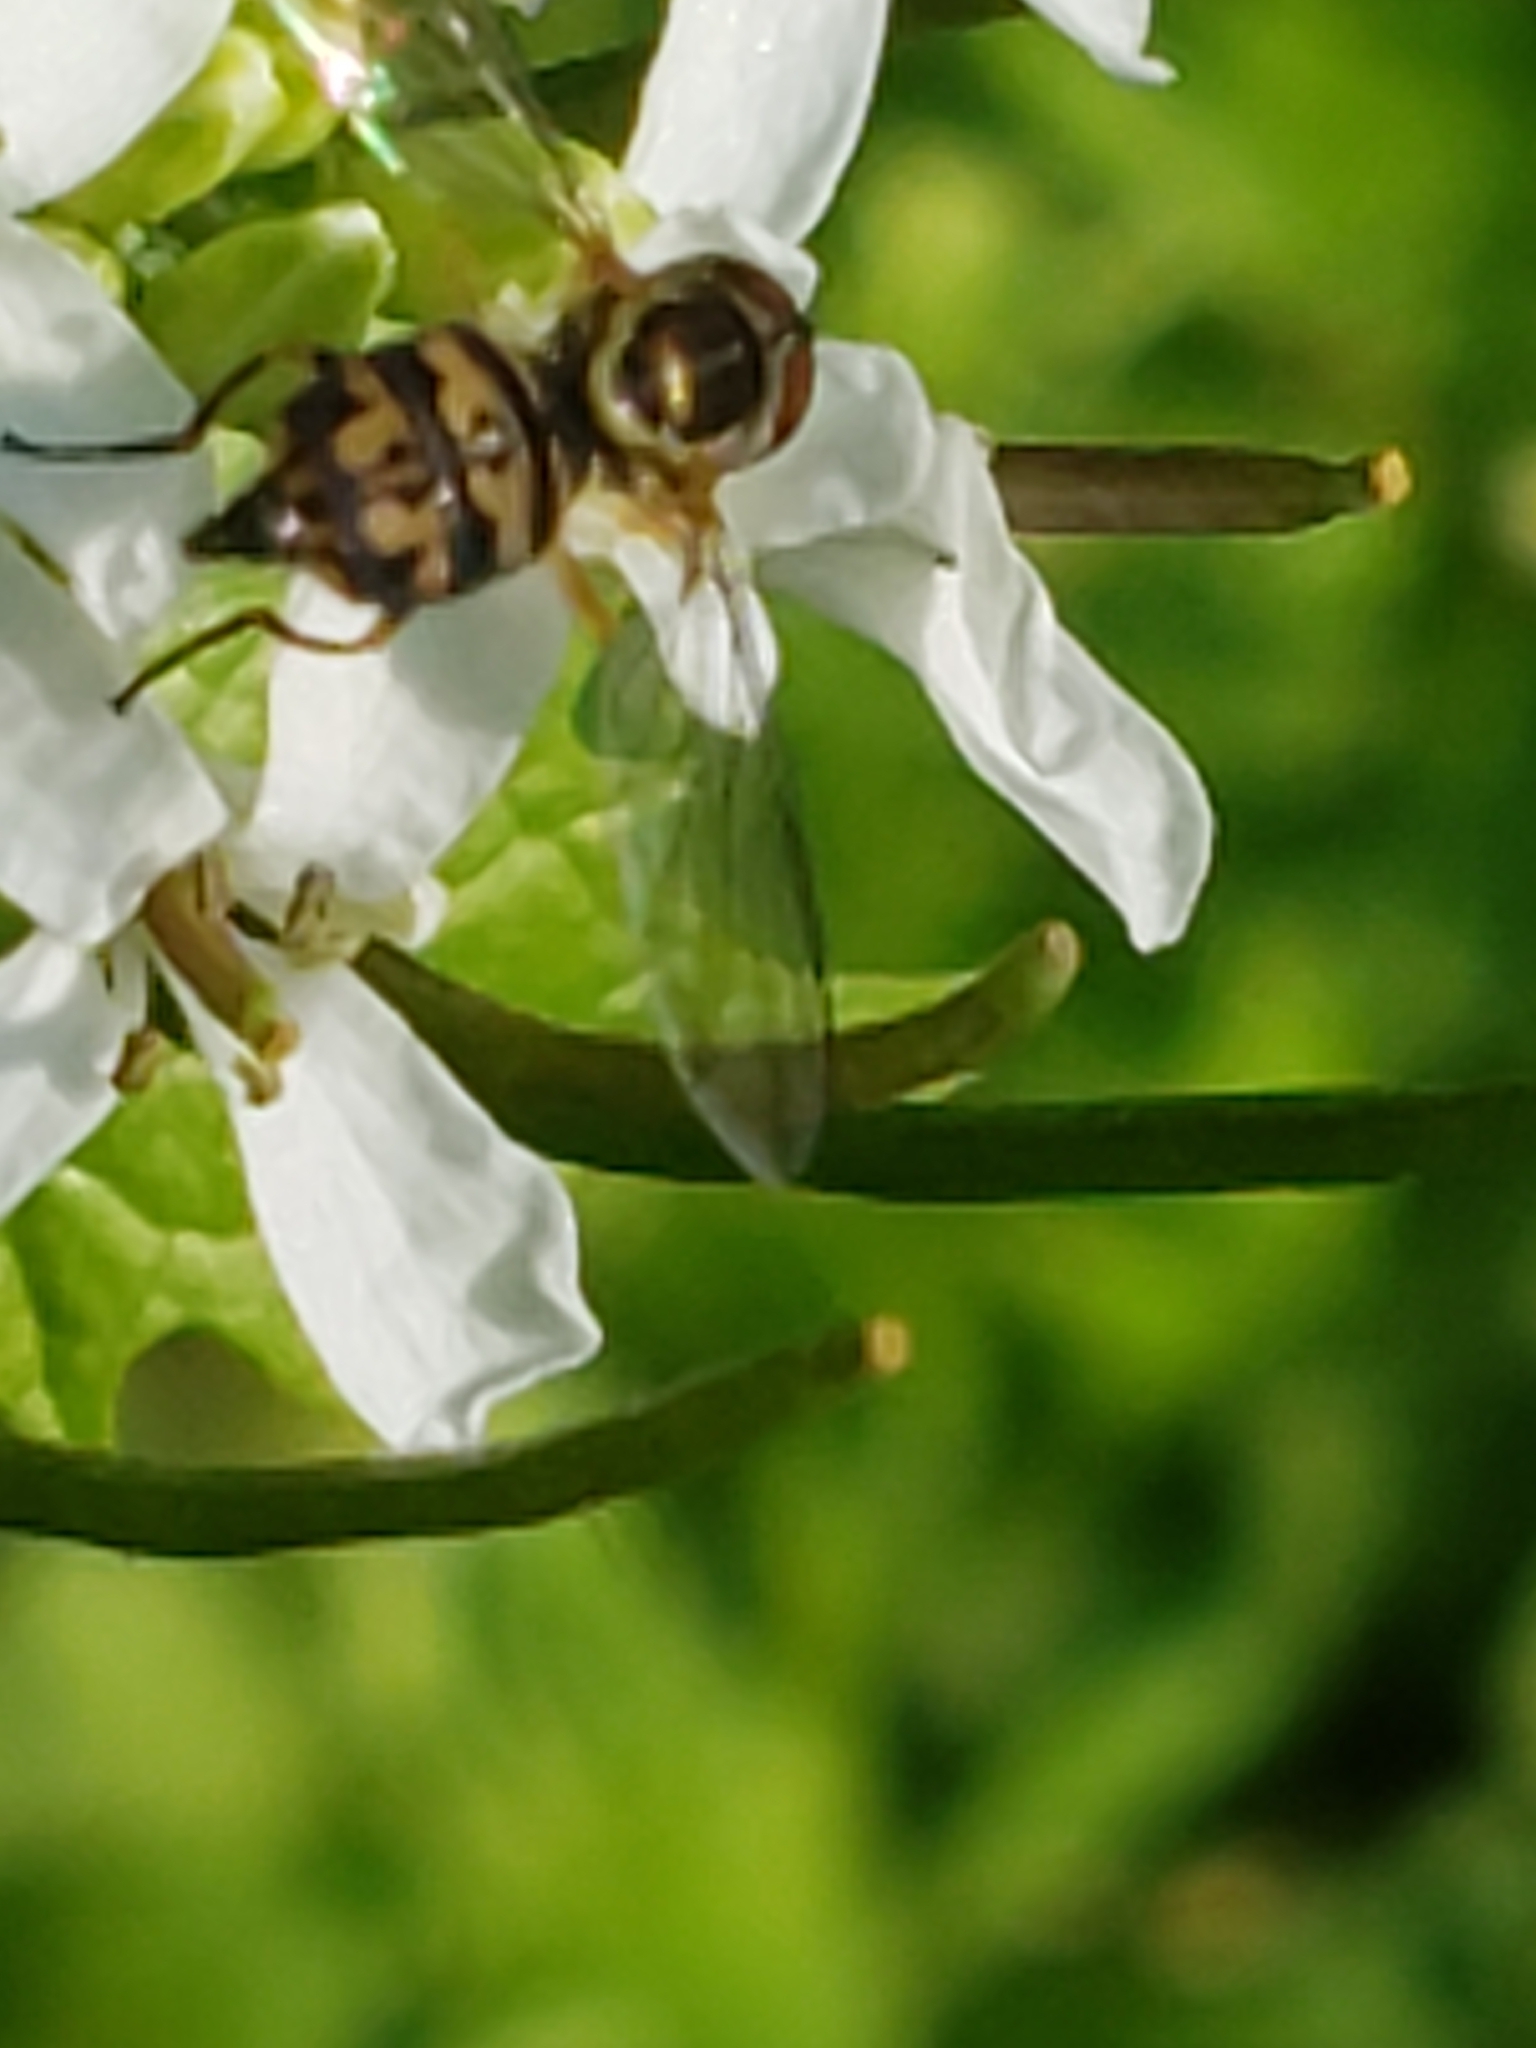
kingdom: Animalia
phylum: Arthropoda
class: Insecta
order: Diptera
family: Syrphidae
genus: Toxomerus
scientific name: Toxomerus geminatus
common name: Eastern calligrapher
